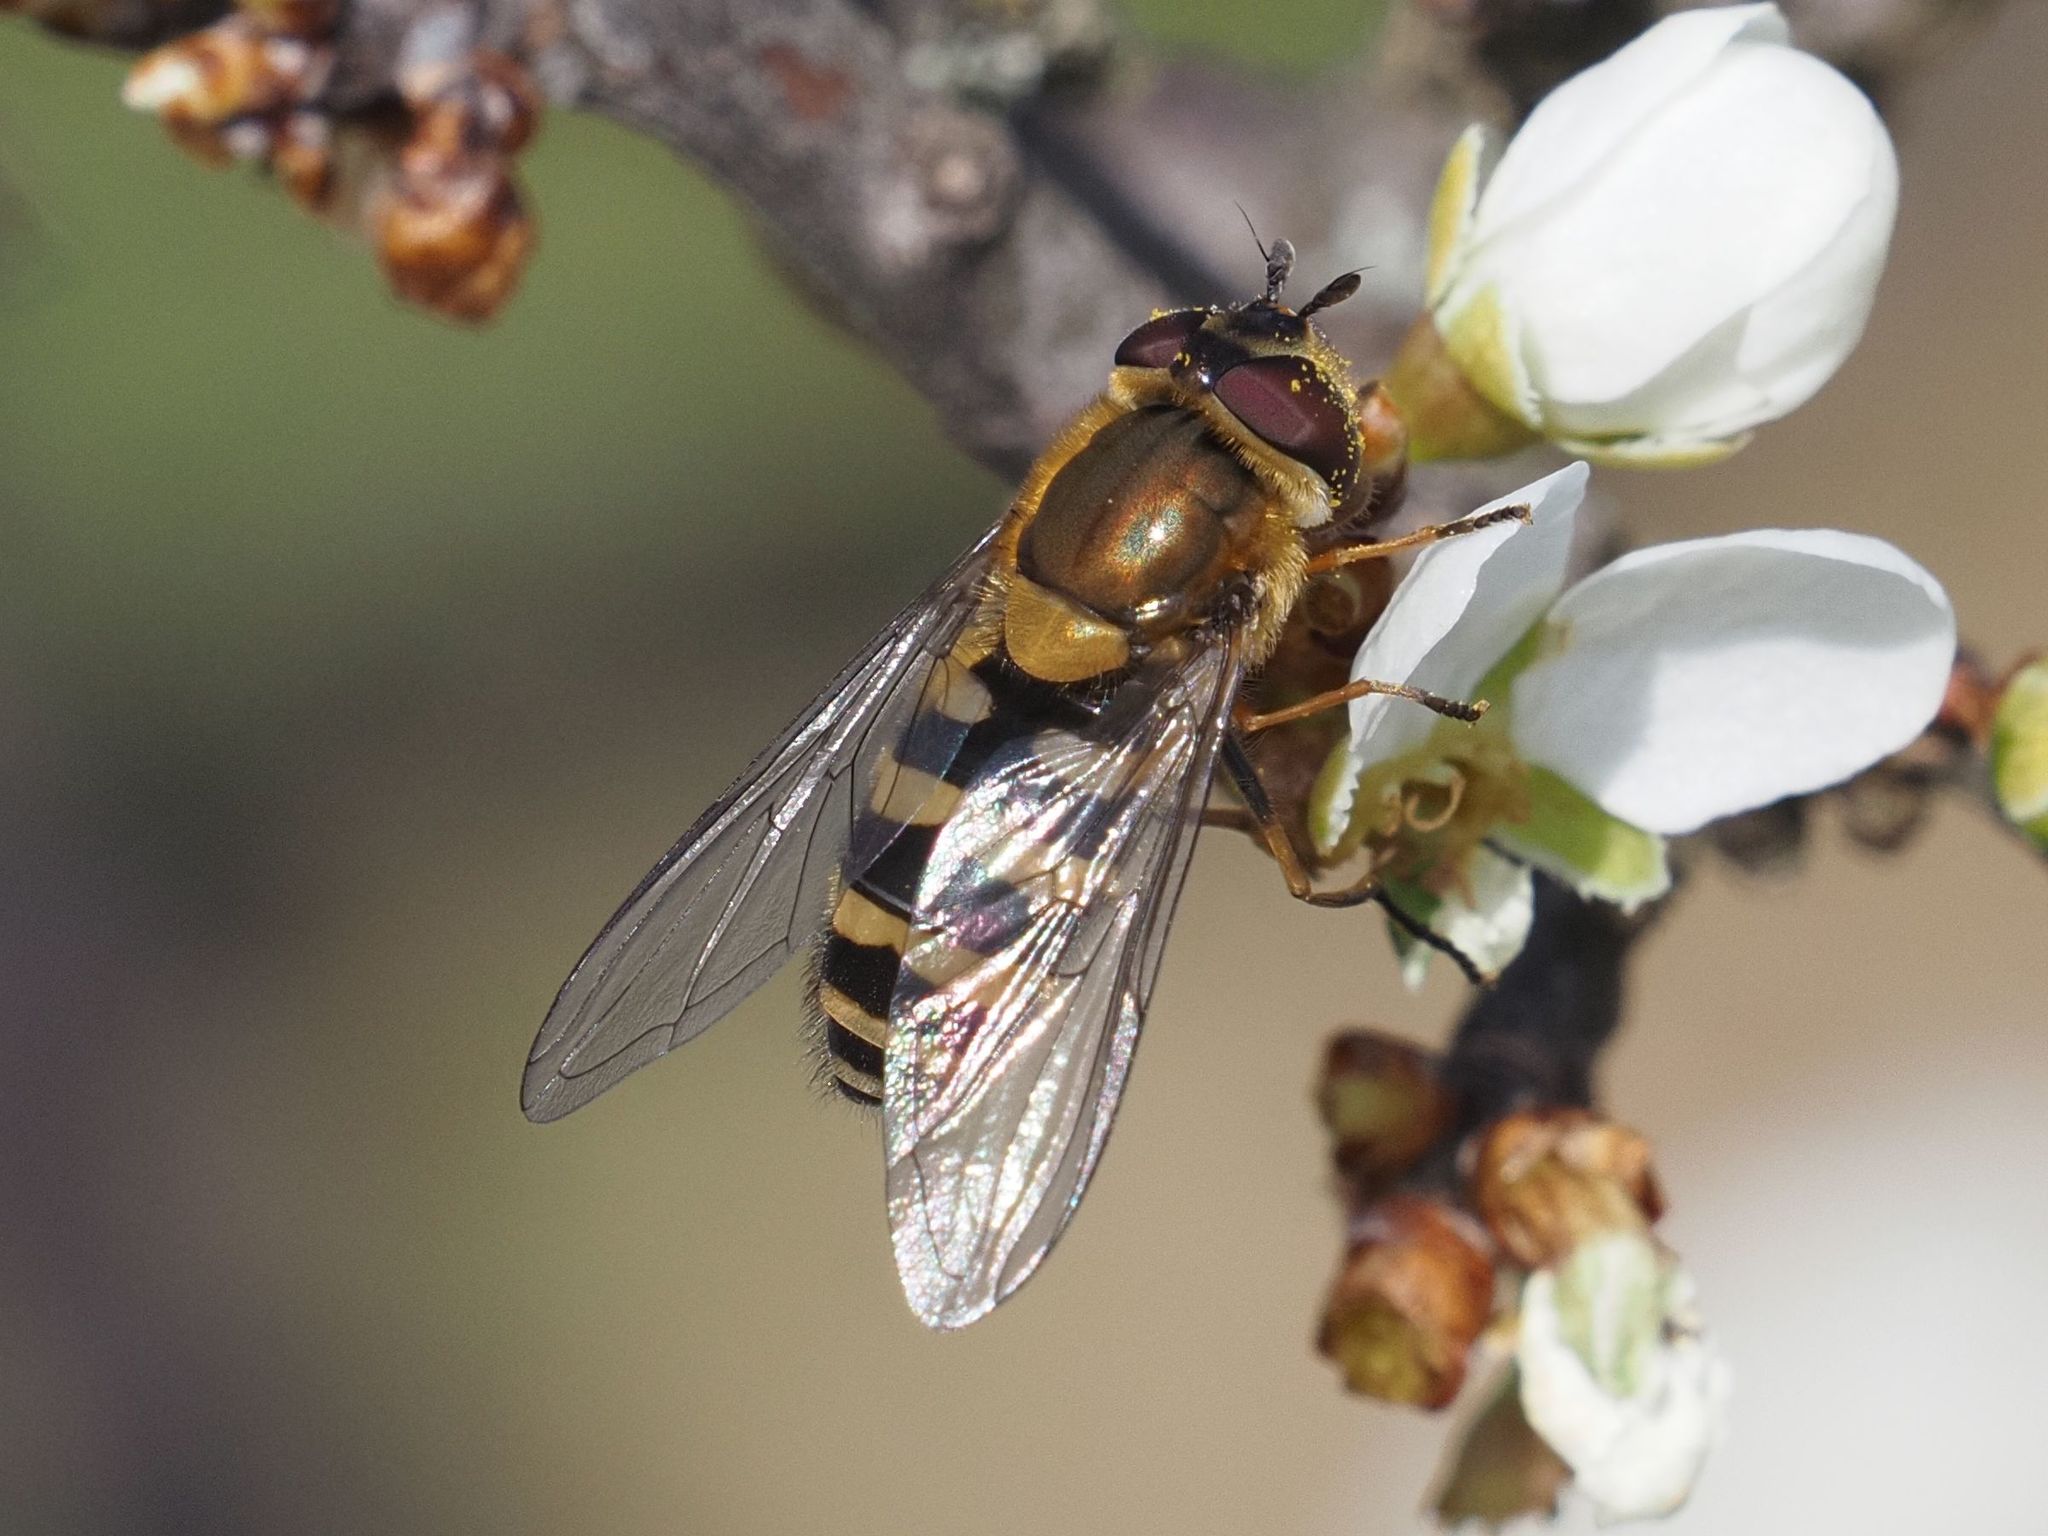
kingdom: Animalia
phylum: Arthropoda
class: Insecta
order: Diptera
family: Syrphidae
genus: Syrphus
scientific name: Syrphus torvus
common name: Hairy-eyed flower fly
